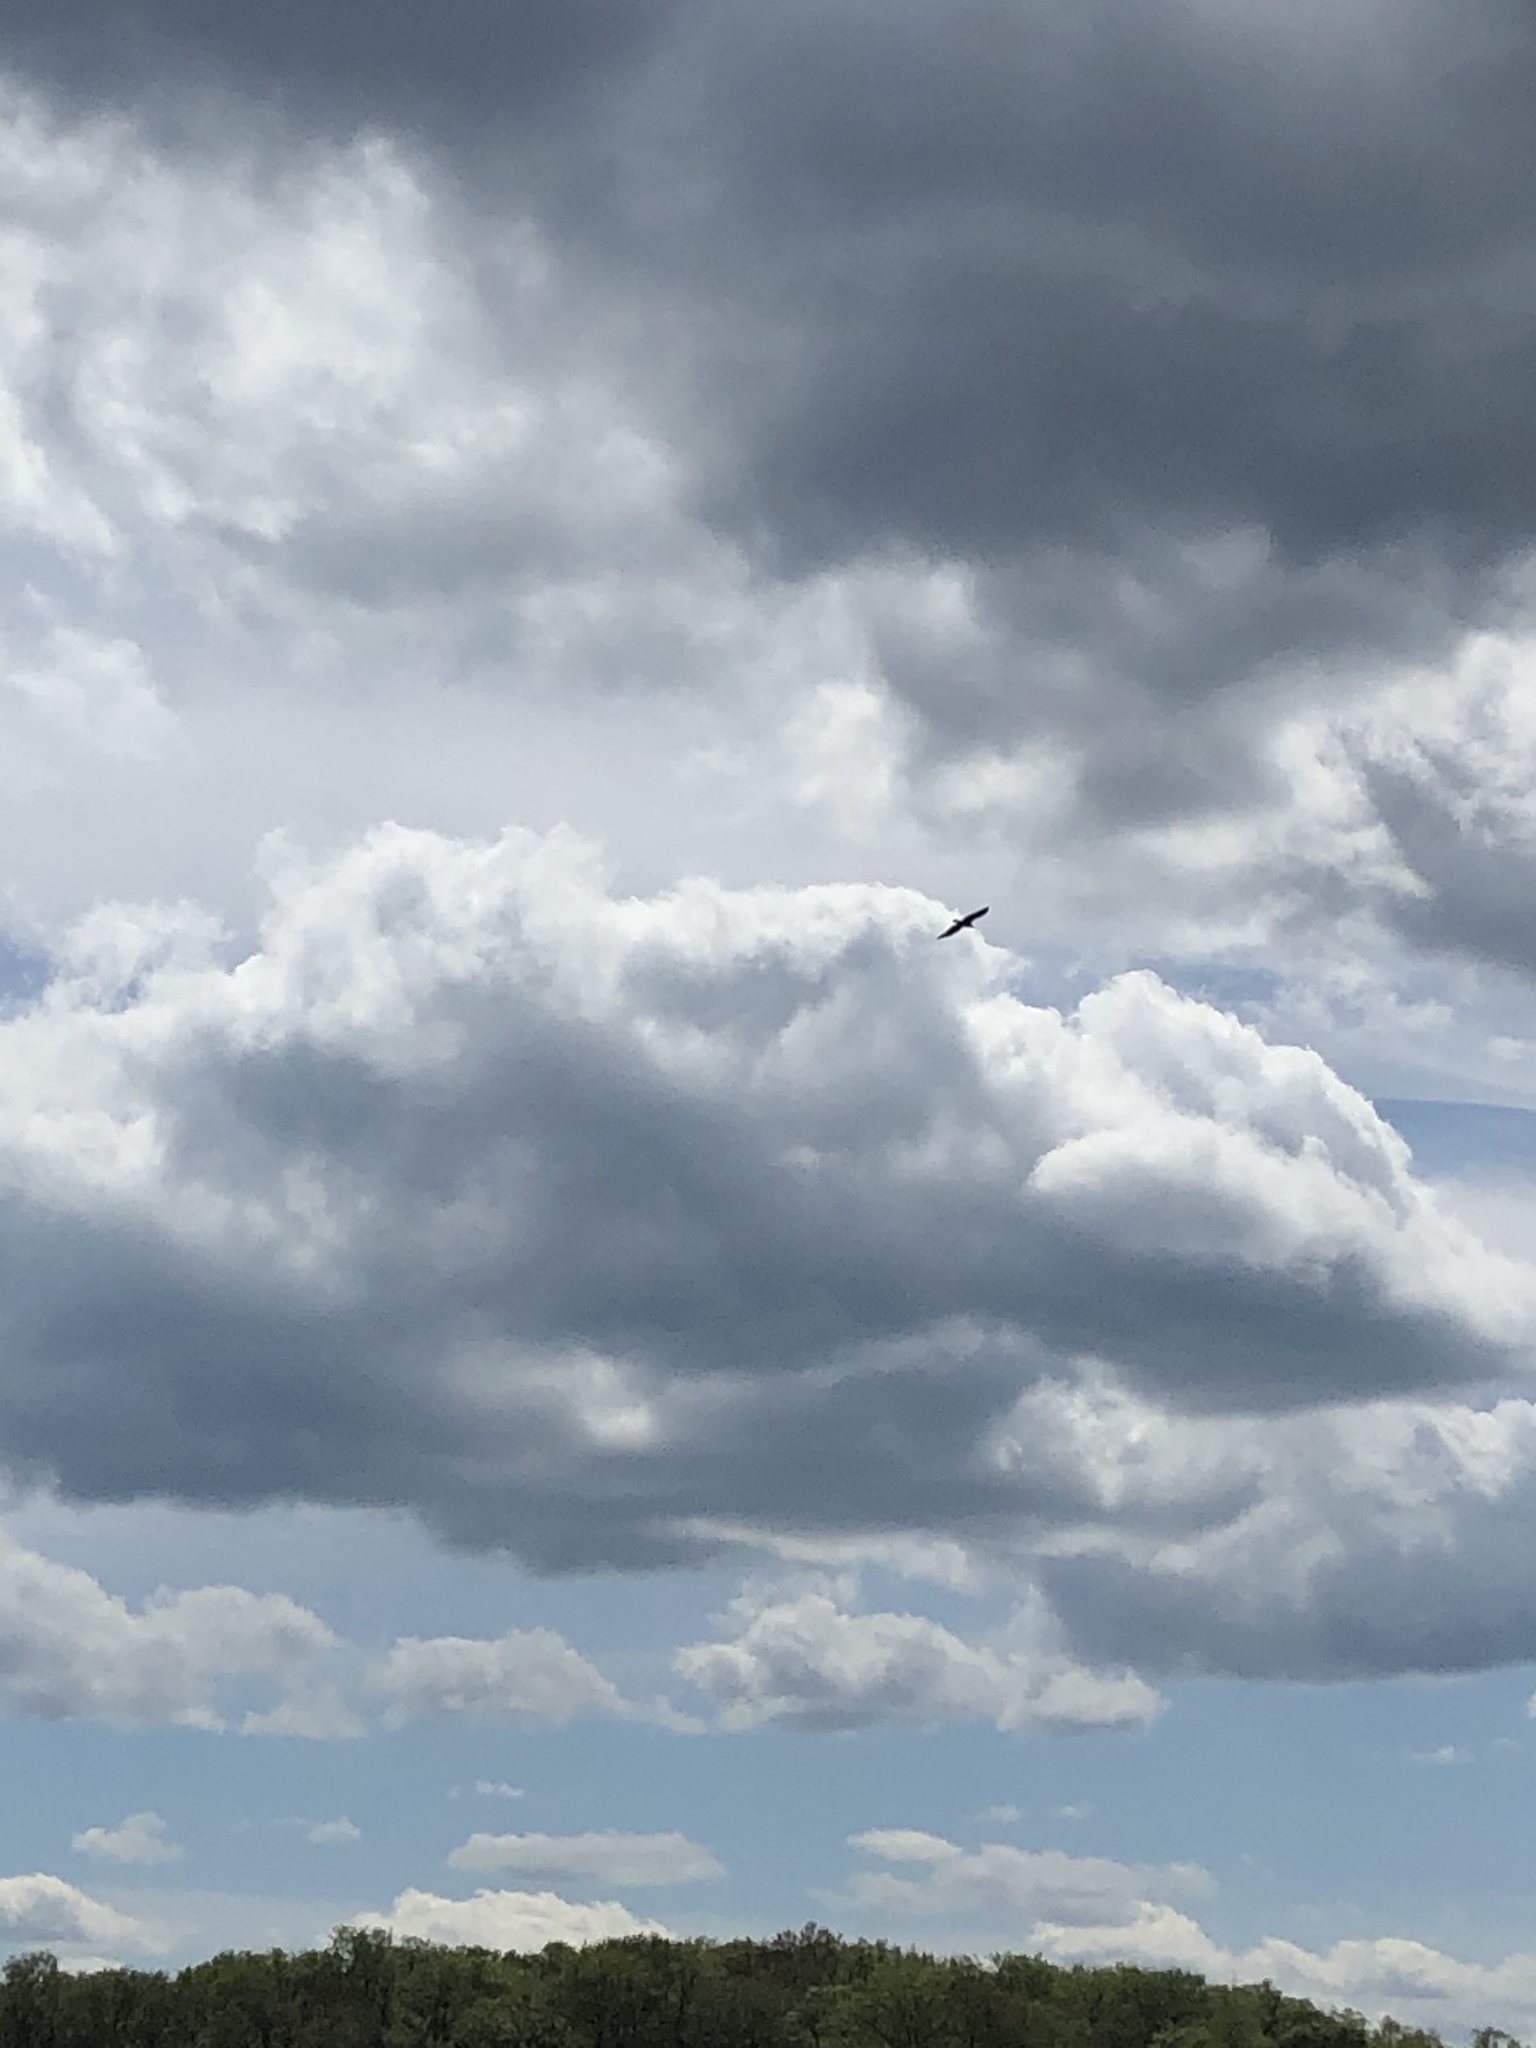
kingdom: Animalia
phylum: Chordata
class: Aves
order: Accipitriformes
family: Accipitridae
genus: Haliaeetus
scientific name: Haliaeetus leucocephalus
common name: Bald eagle
